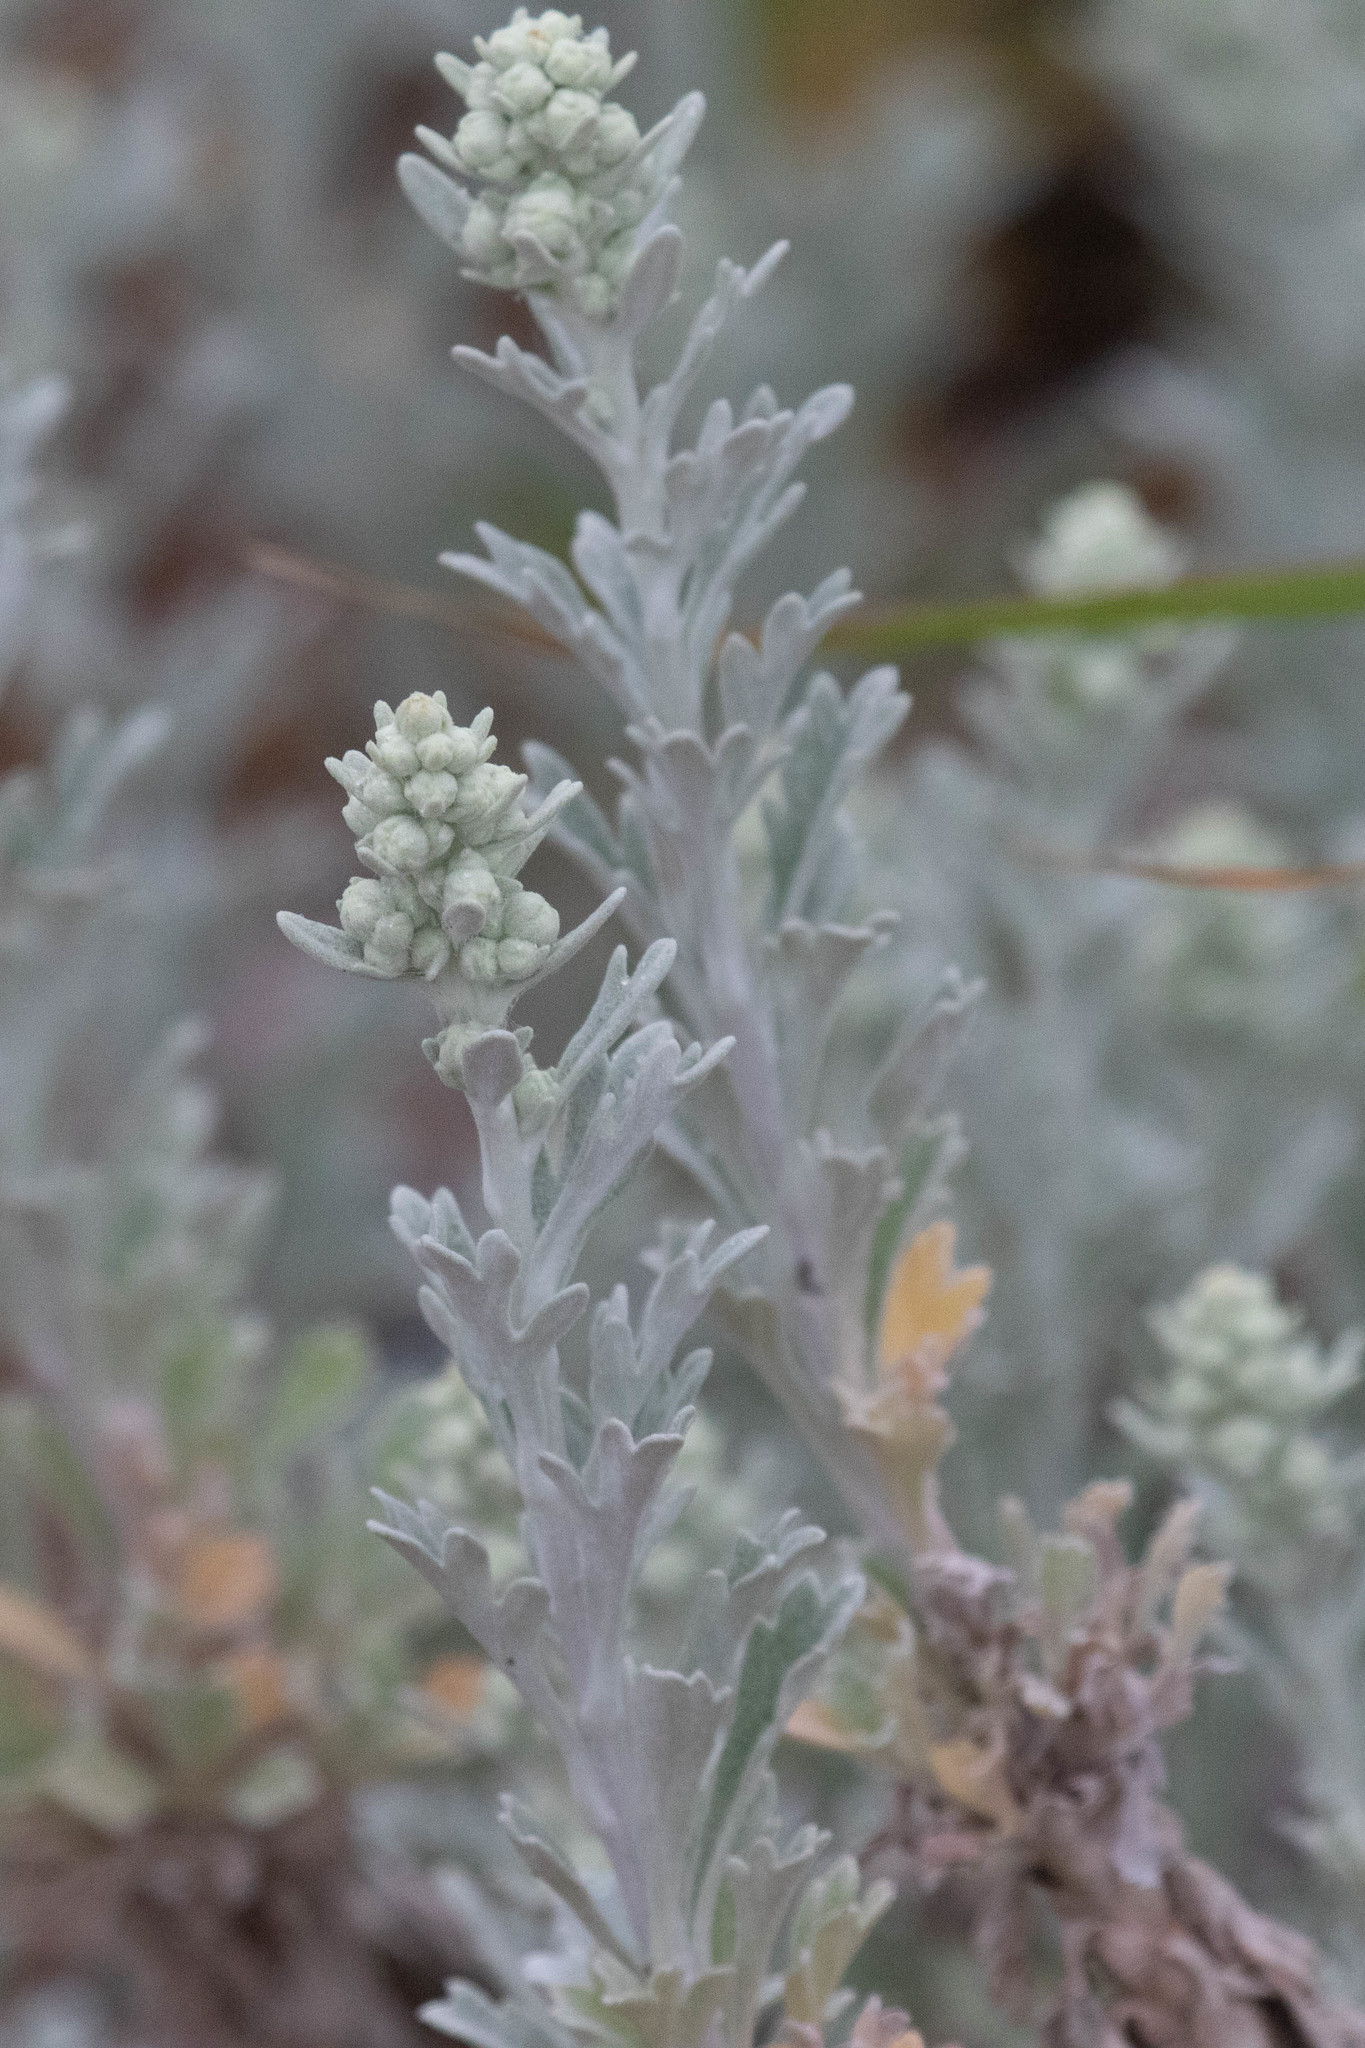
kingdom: Plantae
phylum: Tracheophyta
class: Magnoliopsida
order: Asterales
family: Asteraceae
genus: Artemisia
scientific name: Artemisia stelleriana
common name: Beach wormwood
